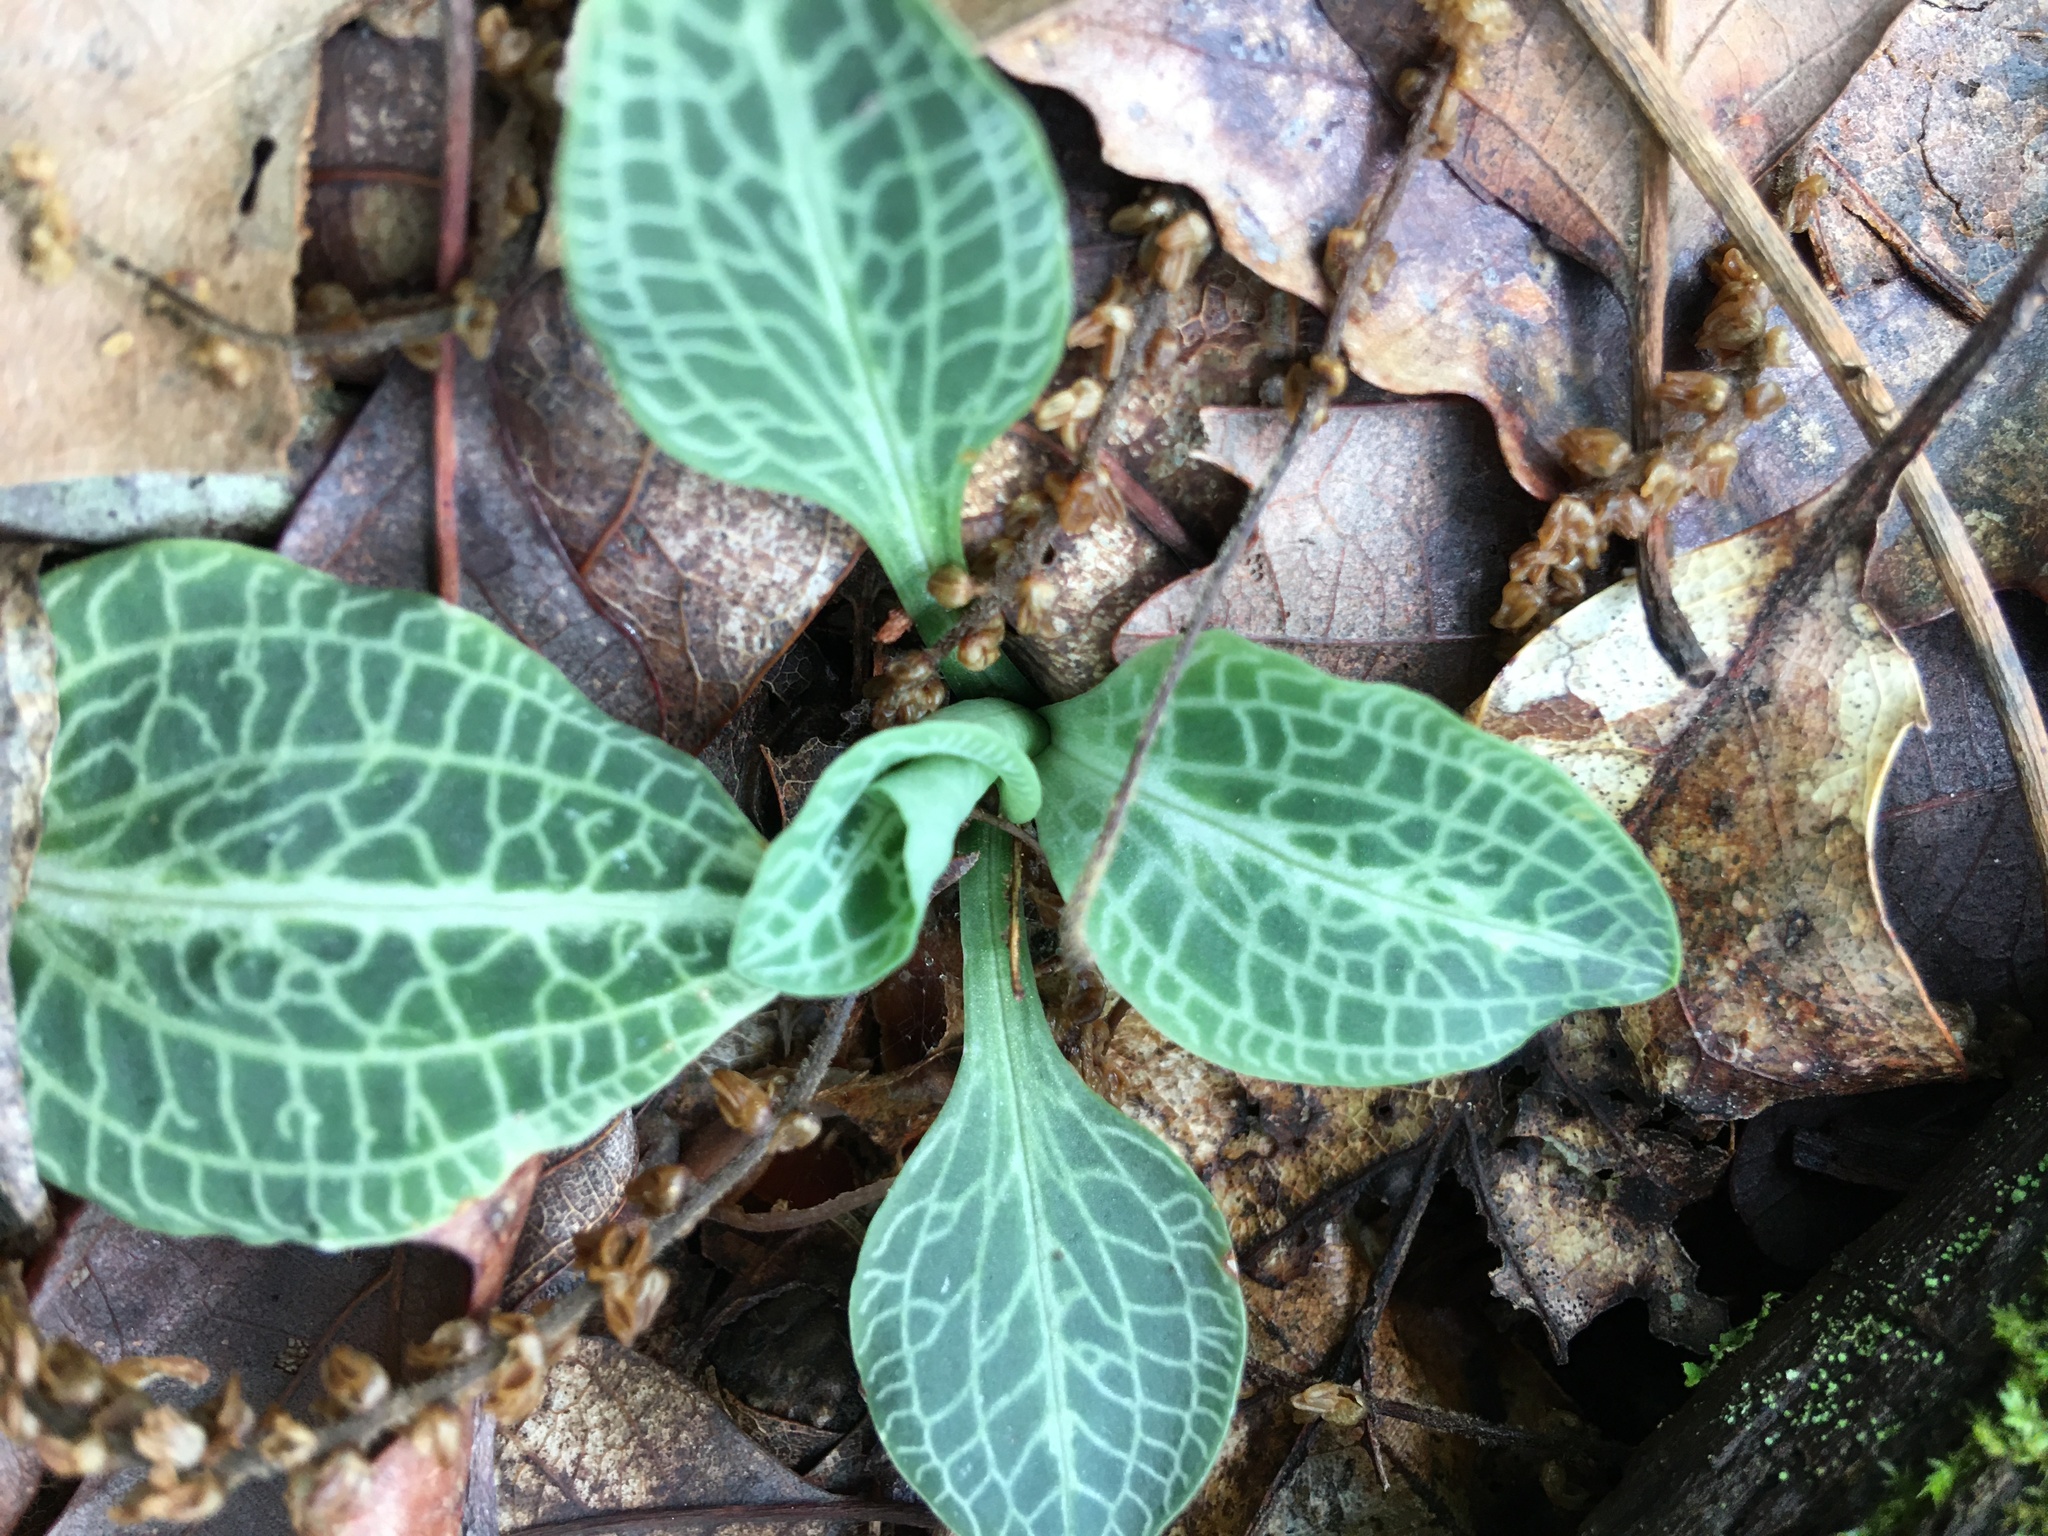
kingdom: Plantae
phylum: Tracheophyta
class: Liliopsida
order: Asparagales
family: Orchidaceae
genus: Goodyera
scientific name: Goodyera pubescens
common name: Downy rattlesnake-plantain
